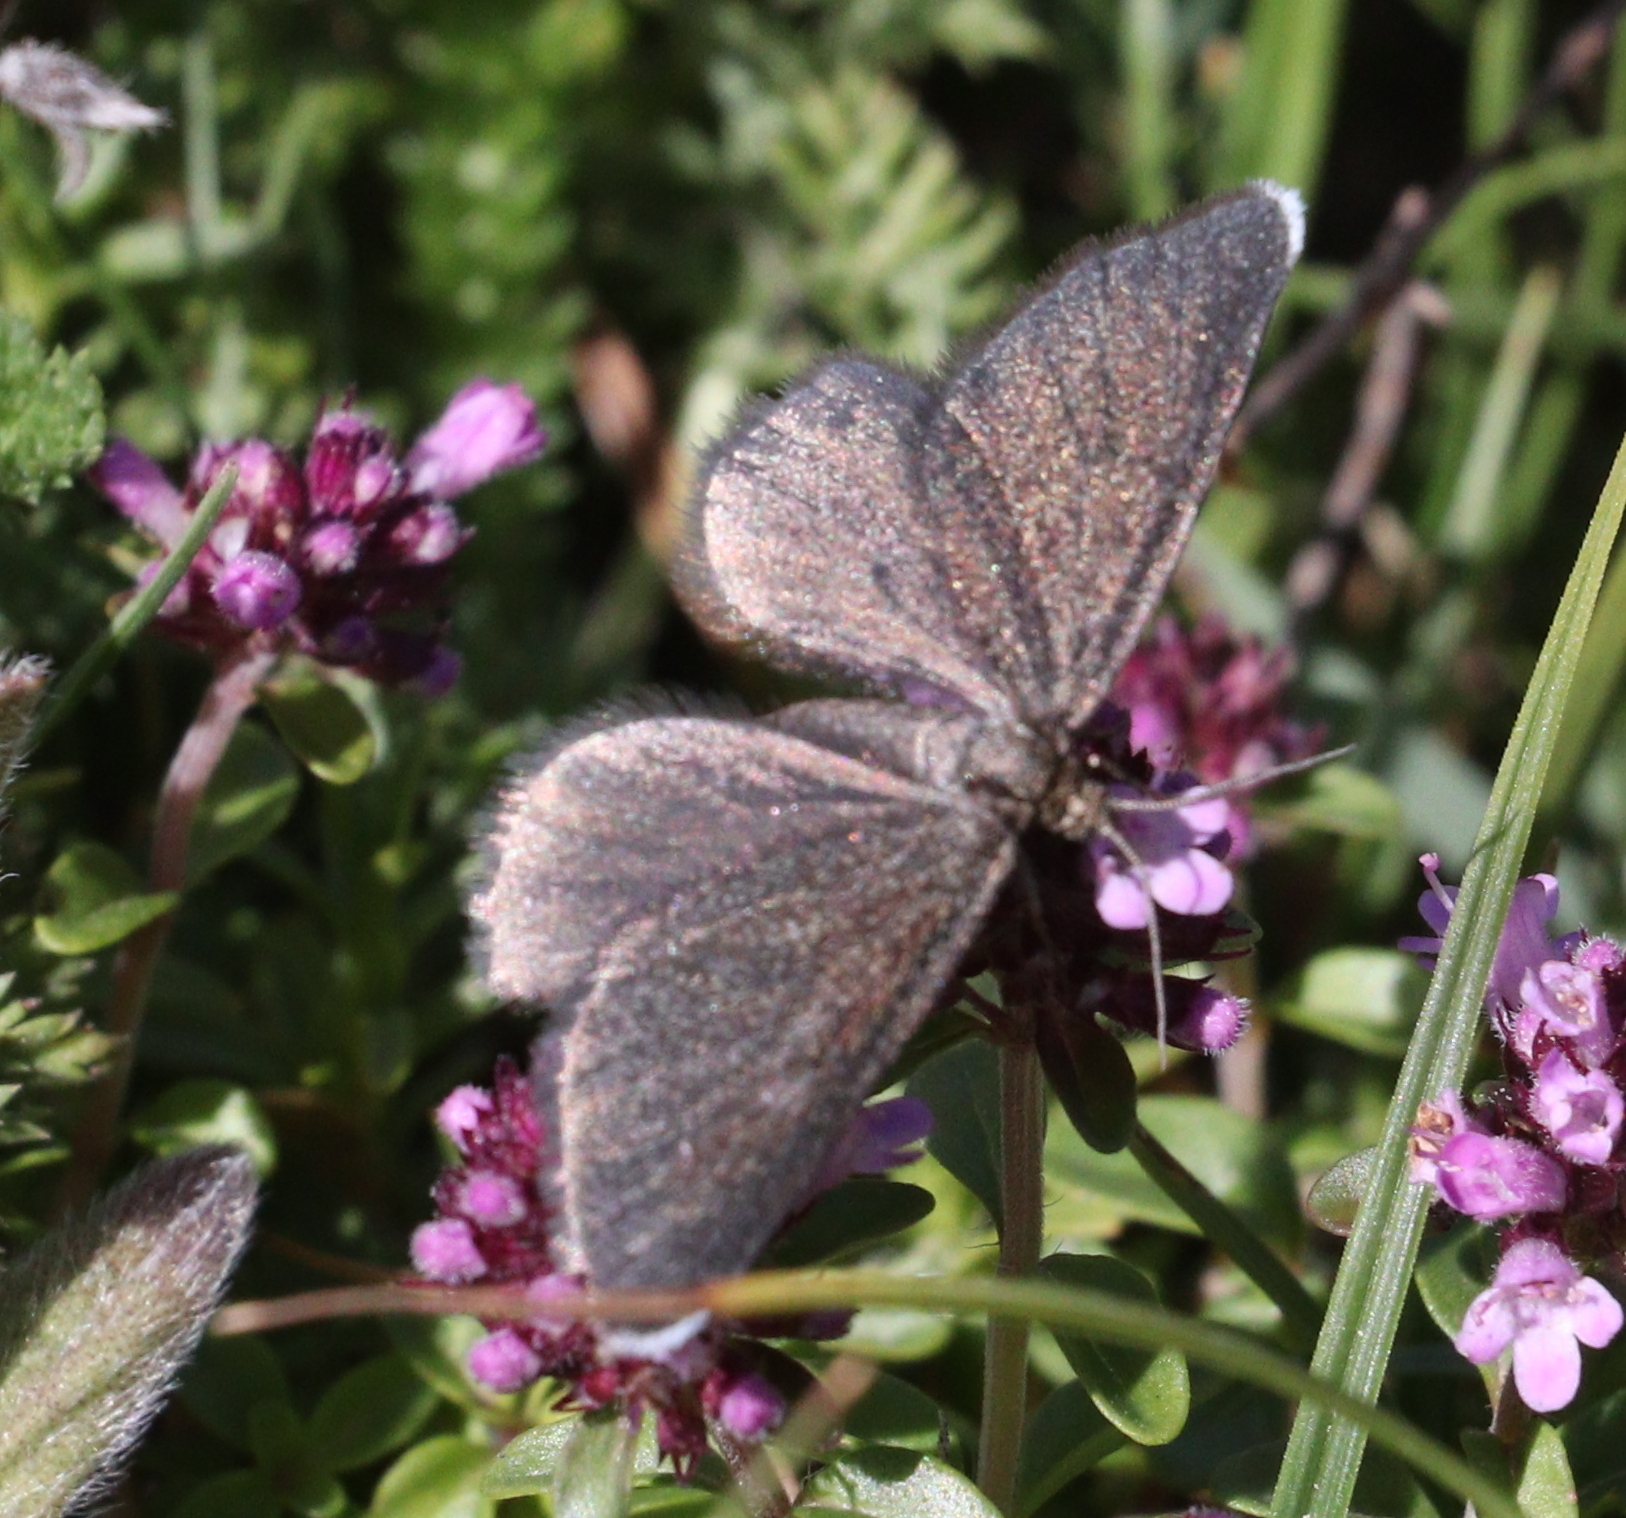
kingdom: Animalia
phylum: Arthropoda
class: Insecta
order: Lepidoptera
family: Geometridae
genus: Odezia
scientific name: Odezia atrata
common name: Chimney sweeper
